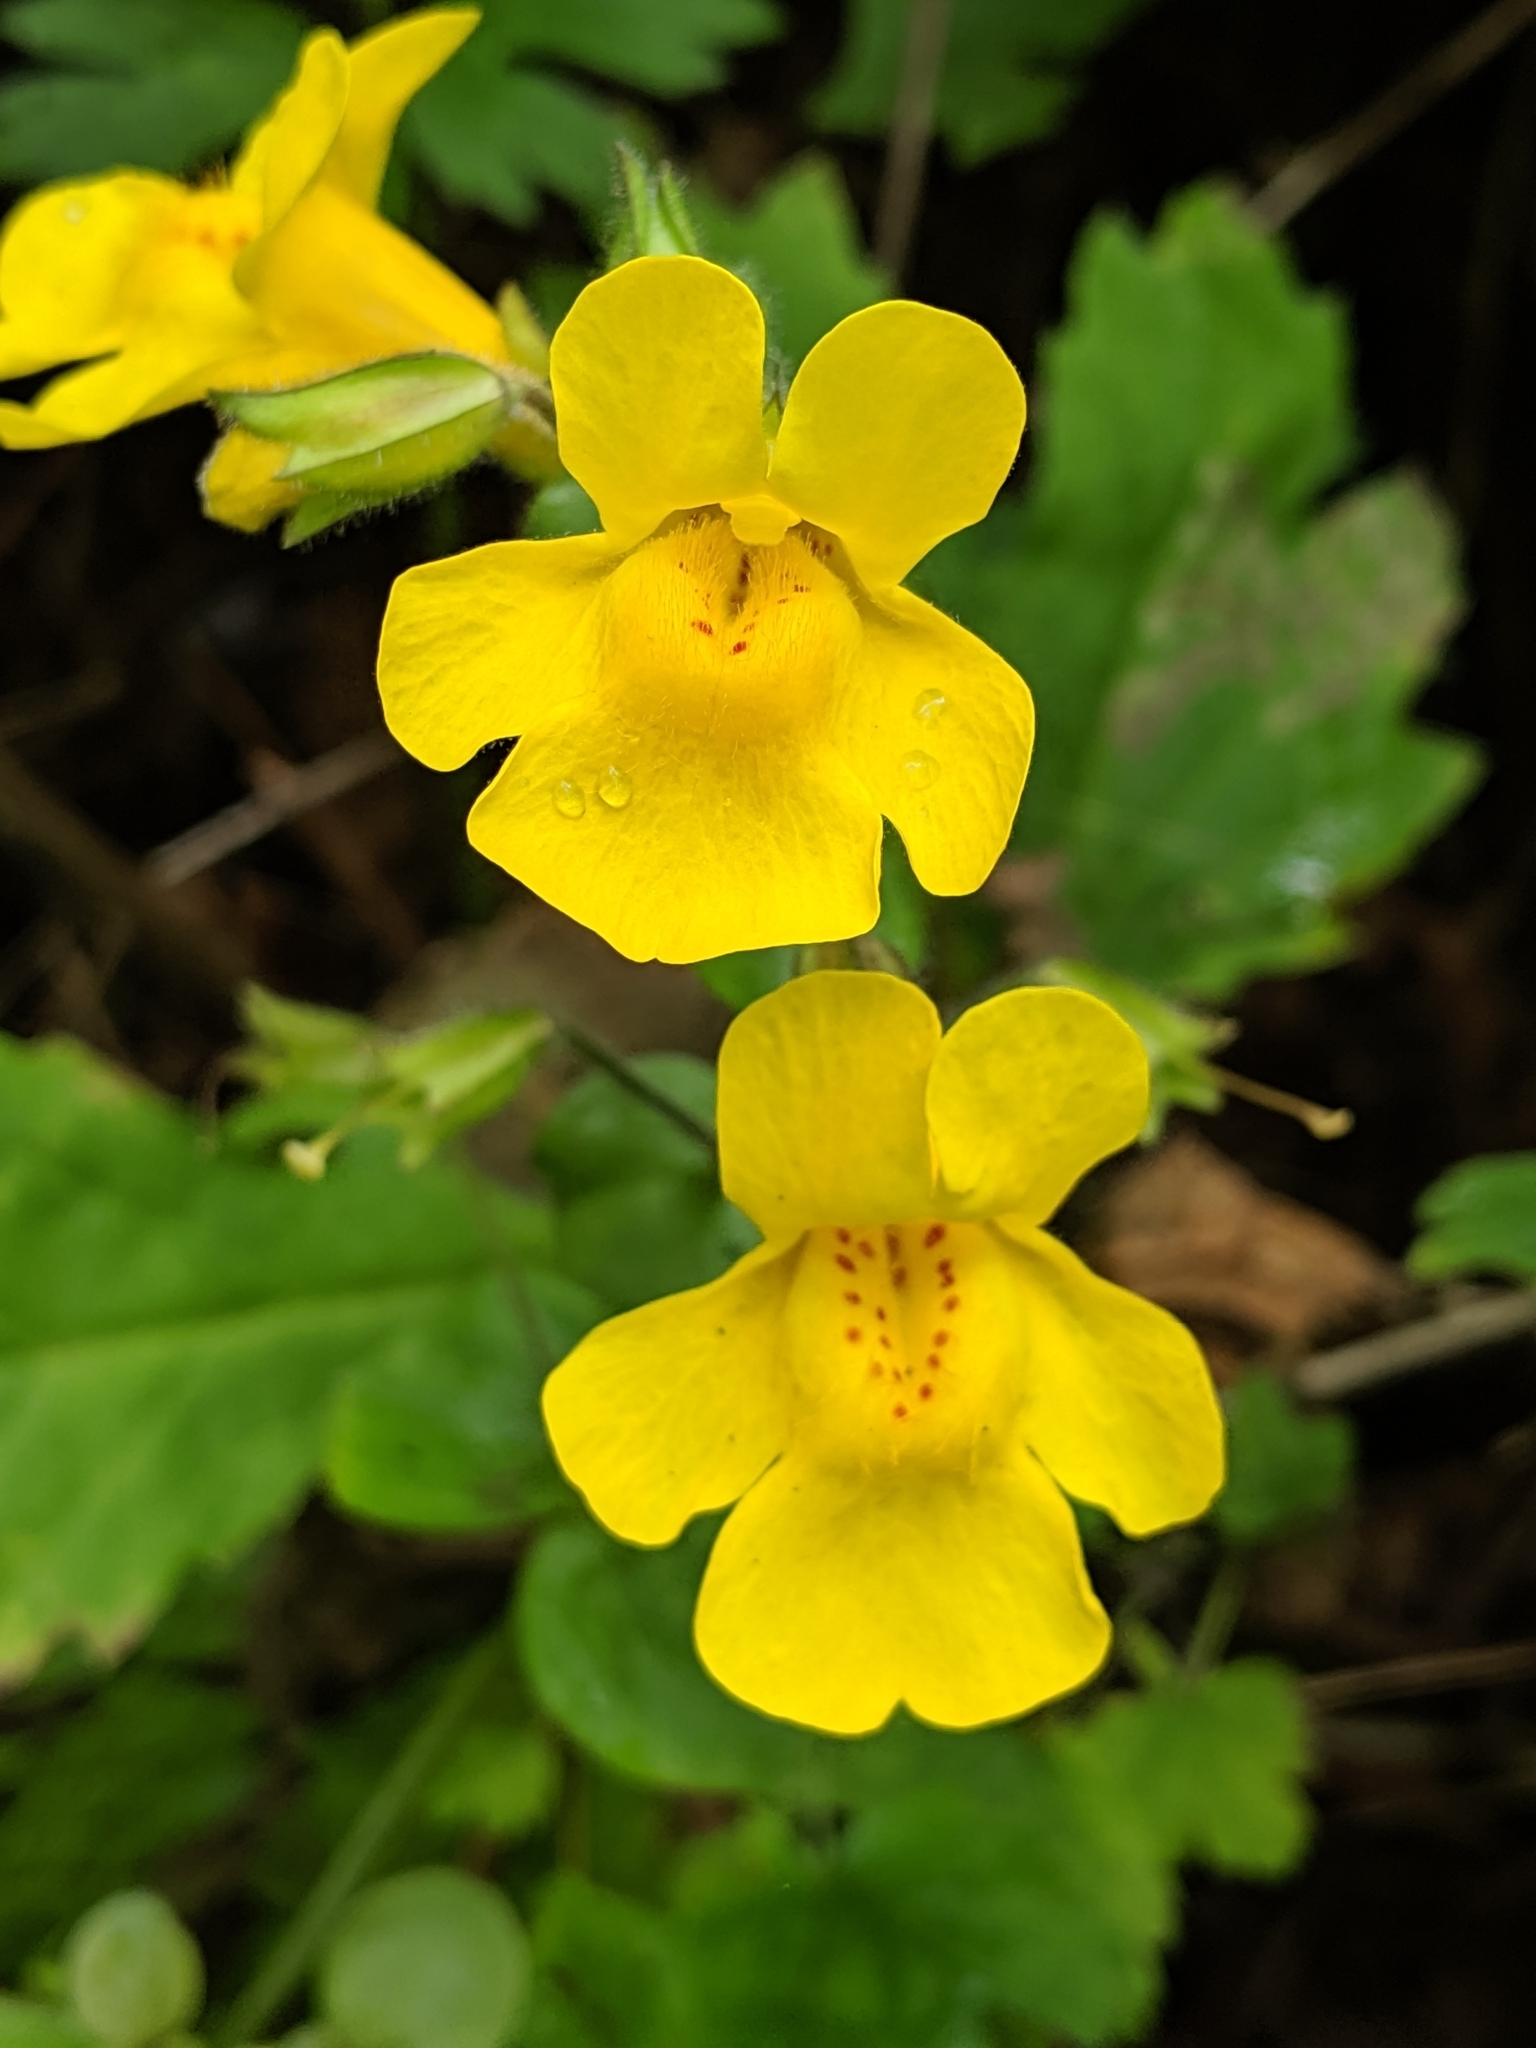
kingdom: Plantae
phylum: Tracheophyta
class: Magnoliopsida
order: Lamiales
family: Phrymaceae
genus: Erythranthe
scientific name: Erythranthe guttata
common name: Monkeyflower
